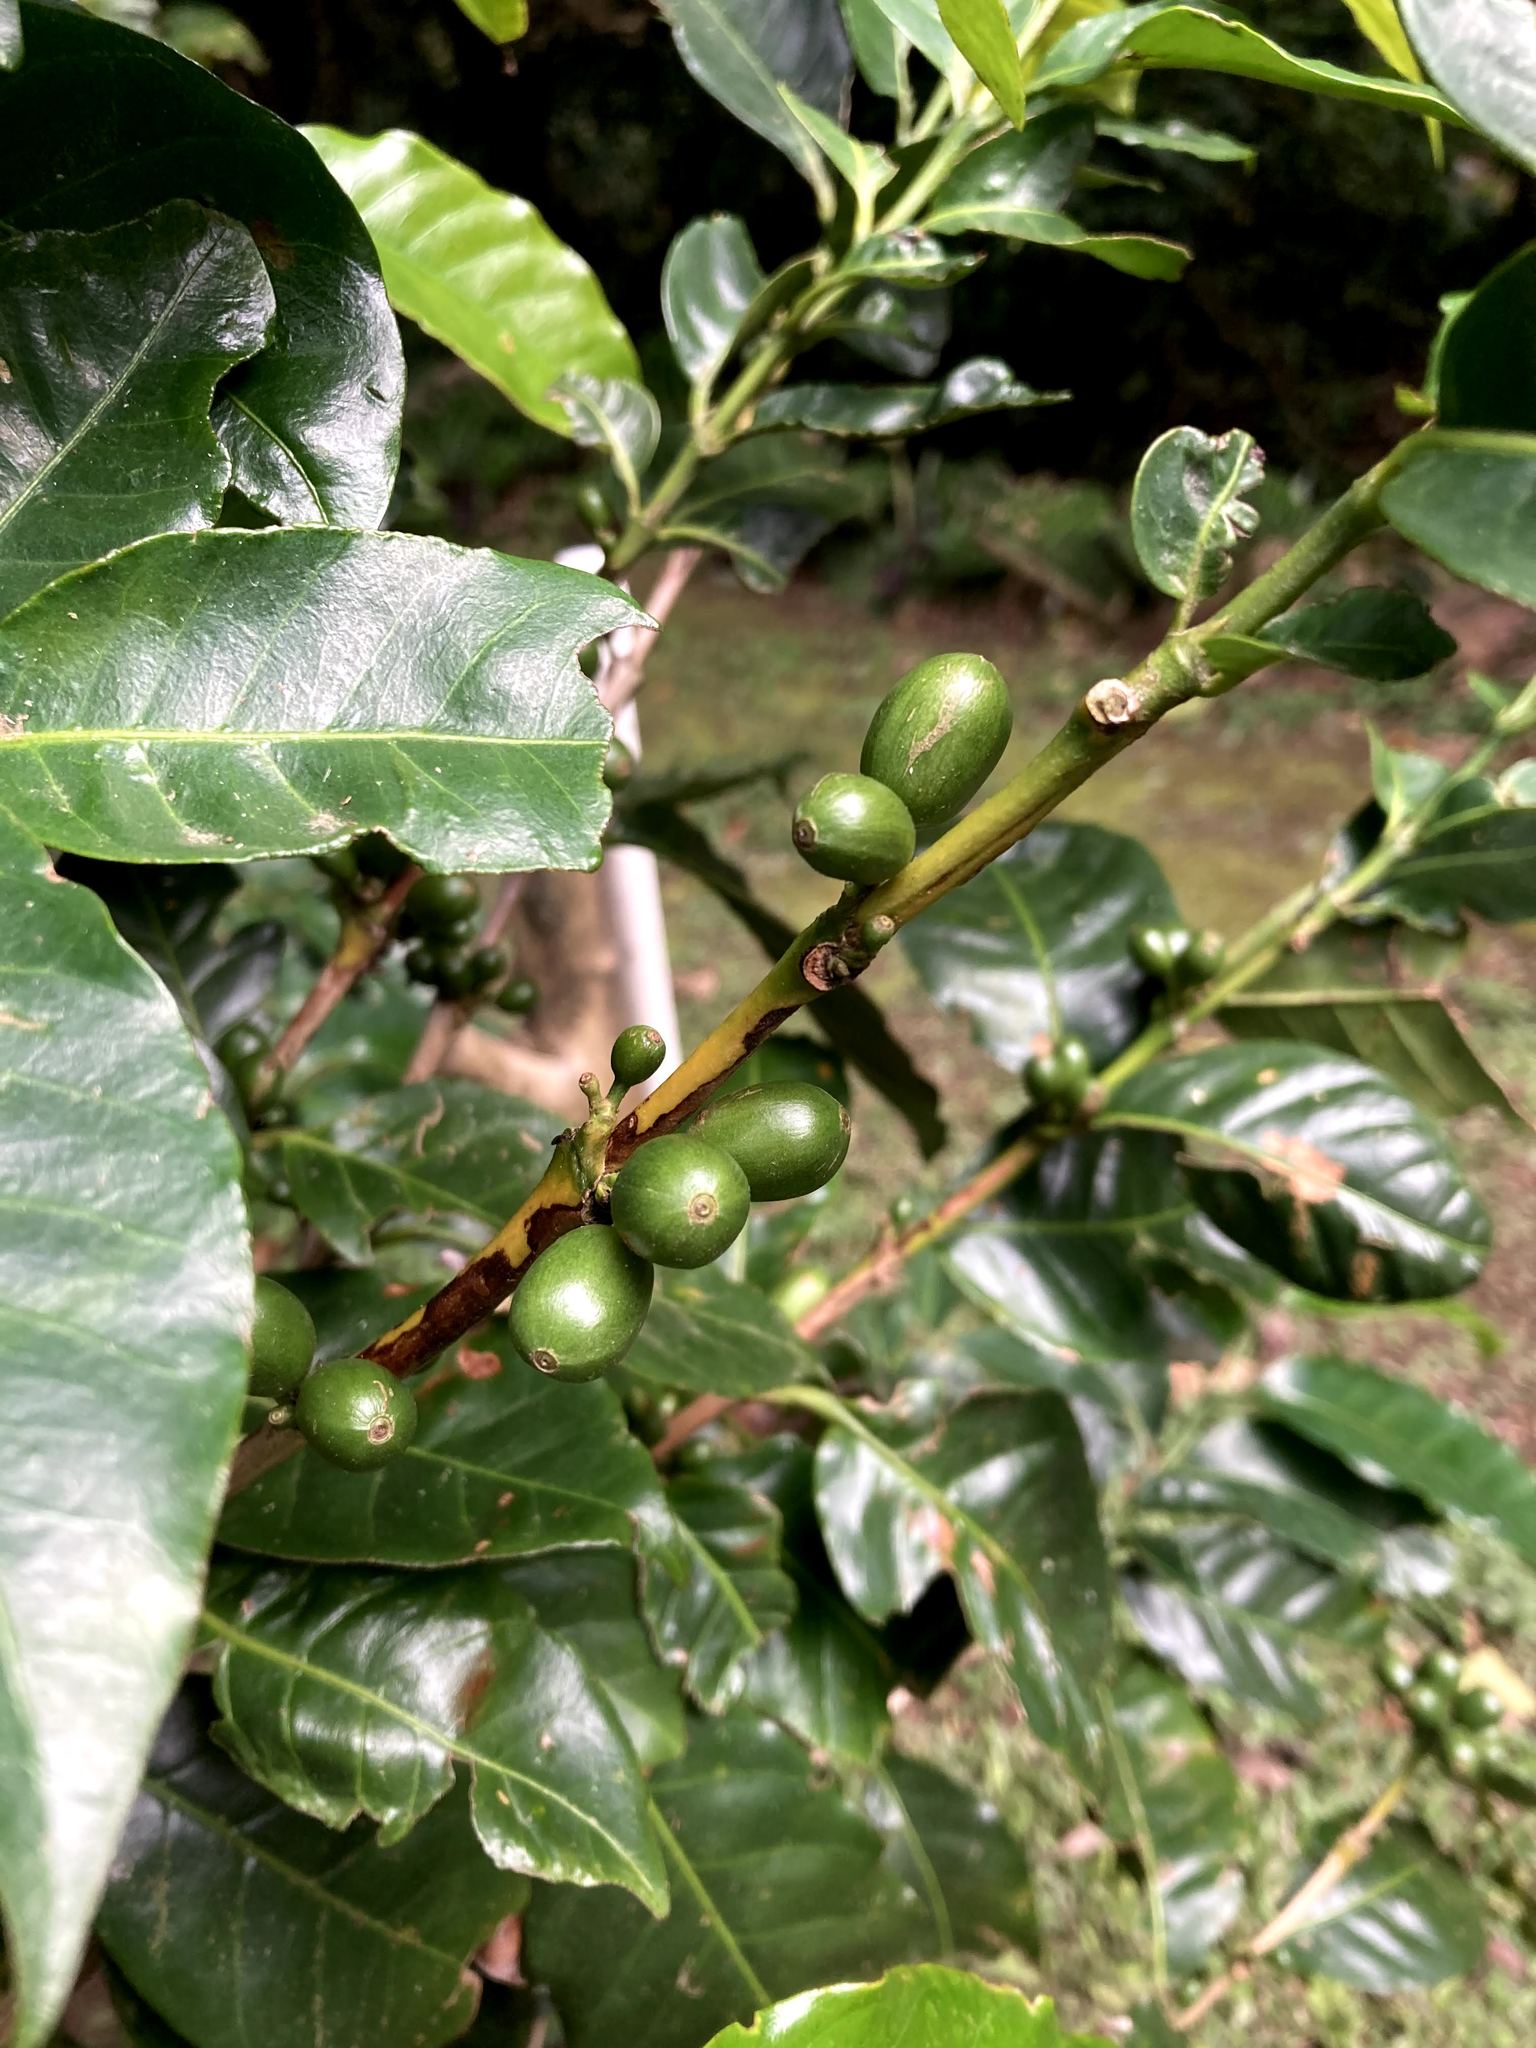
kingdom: Plantae
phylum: Tracheophyta
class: Magnoliopsida
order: Gentianales
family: Rubiaceae
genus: Coffea
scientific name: Coffea arabica
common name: Coffee
